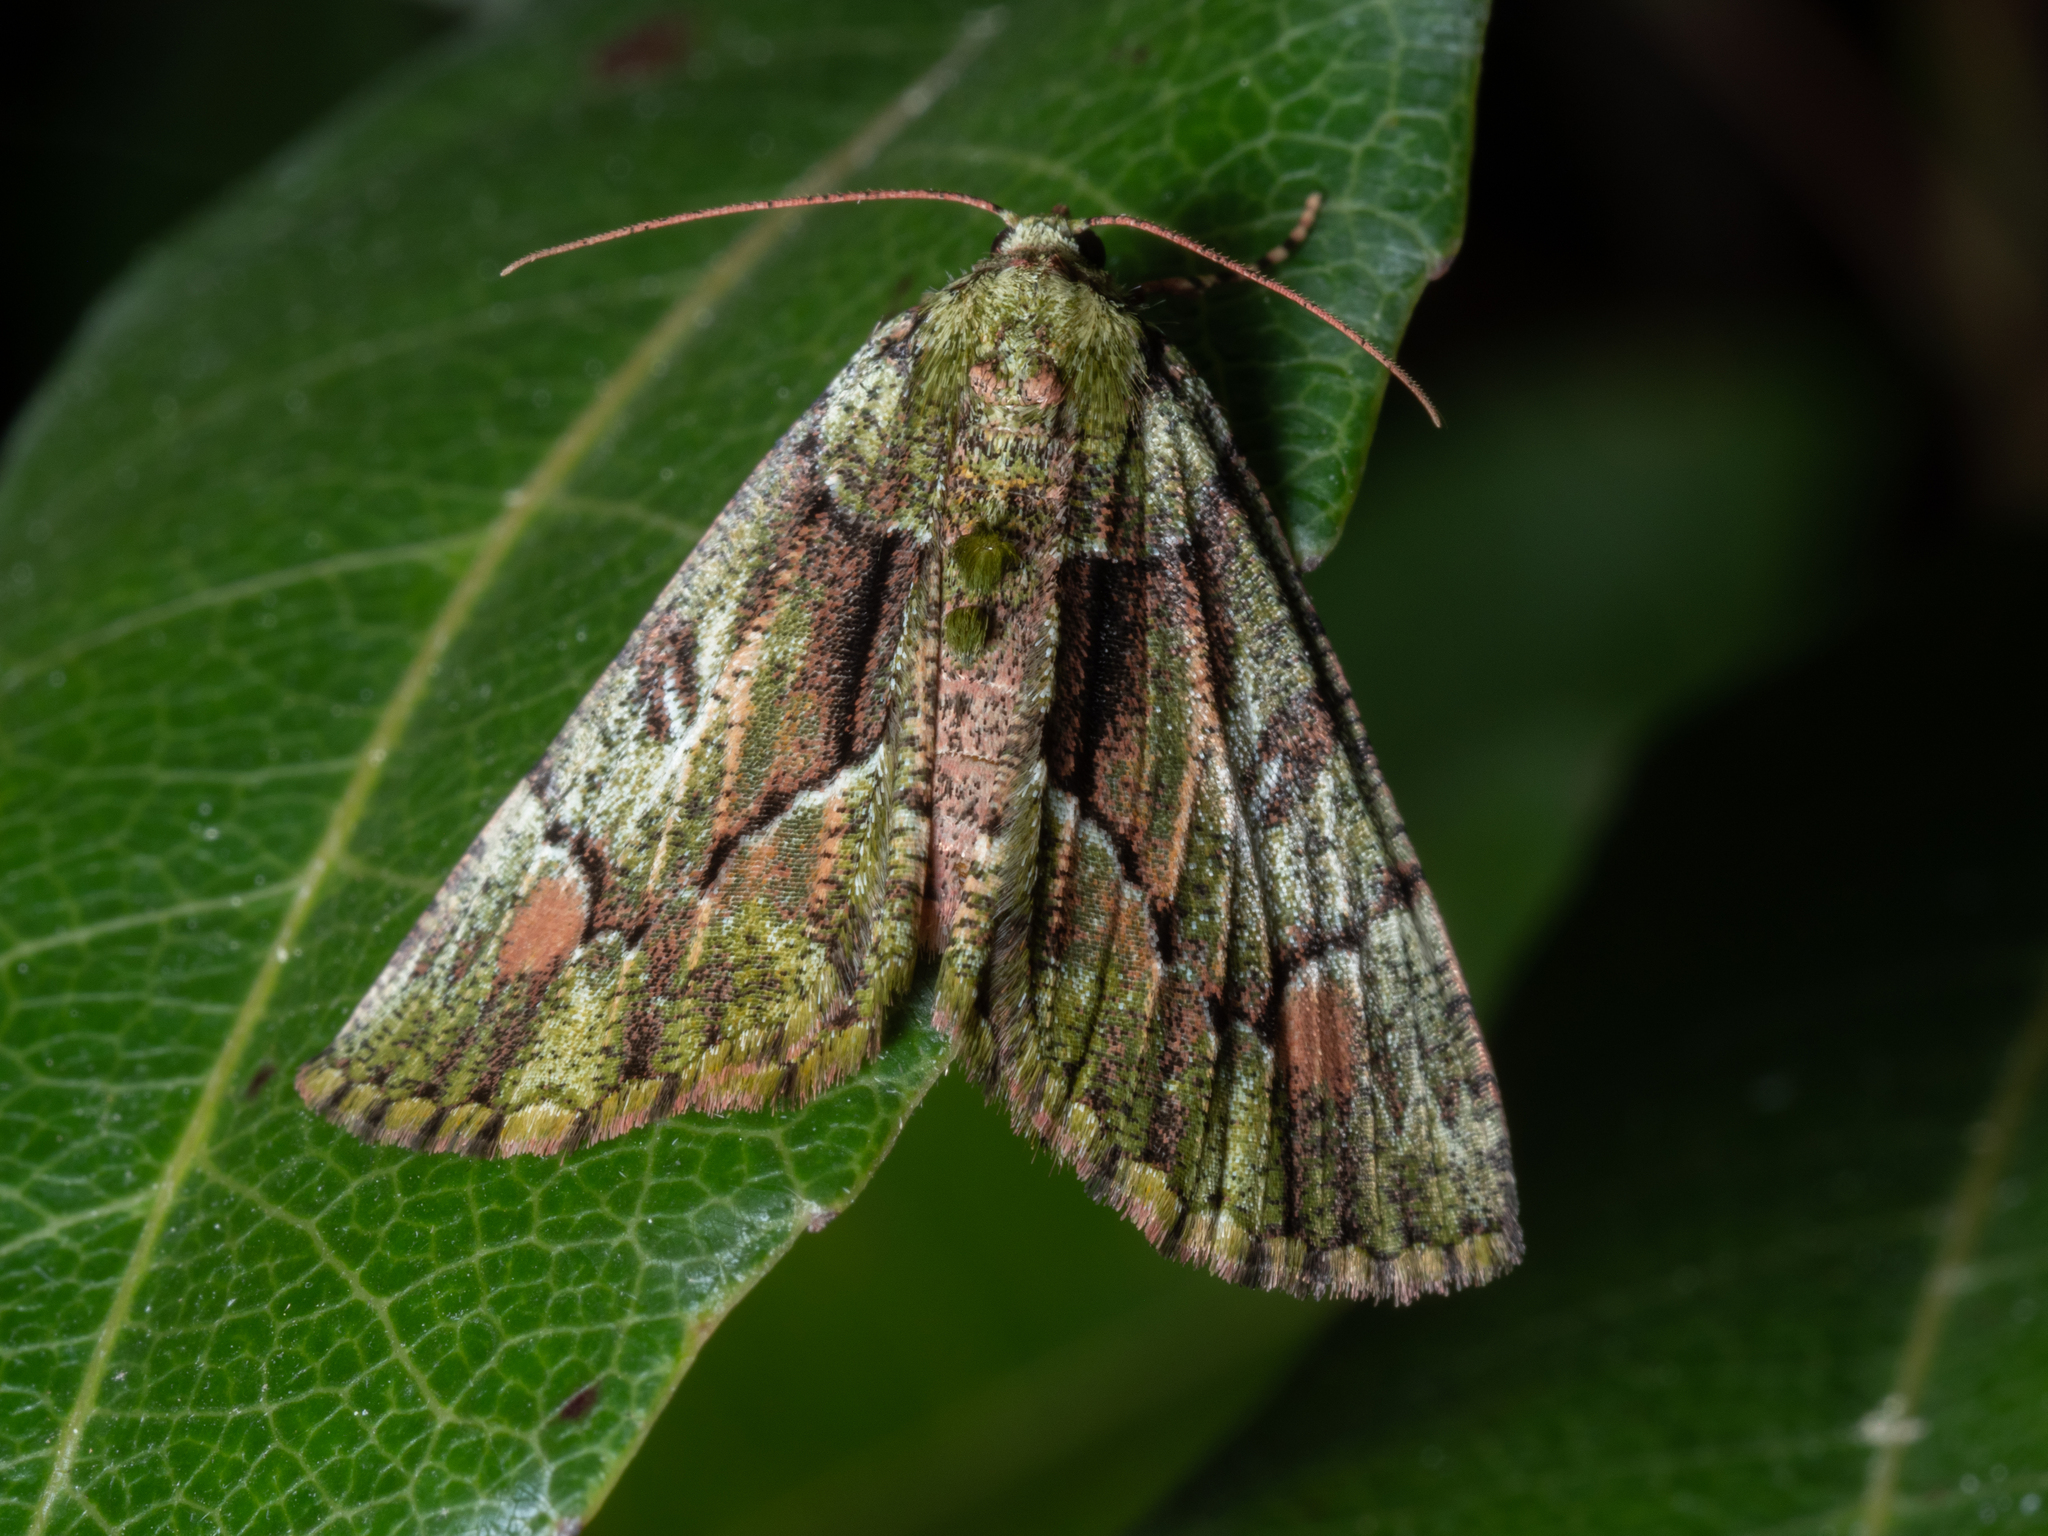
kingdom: Animalia
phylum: Arthropoda
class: Insecta
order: Lepidoptera
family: Geometridae
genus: Aeolochroma
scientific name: Aeolochroma metarhodata
